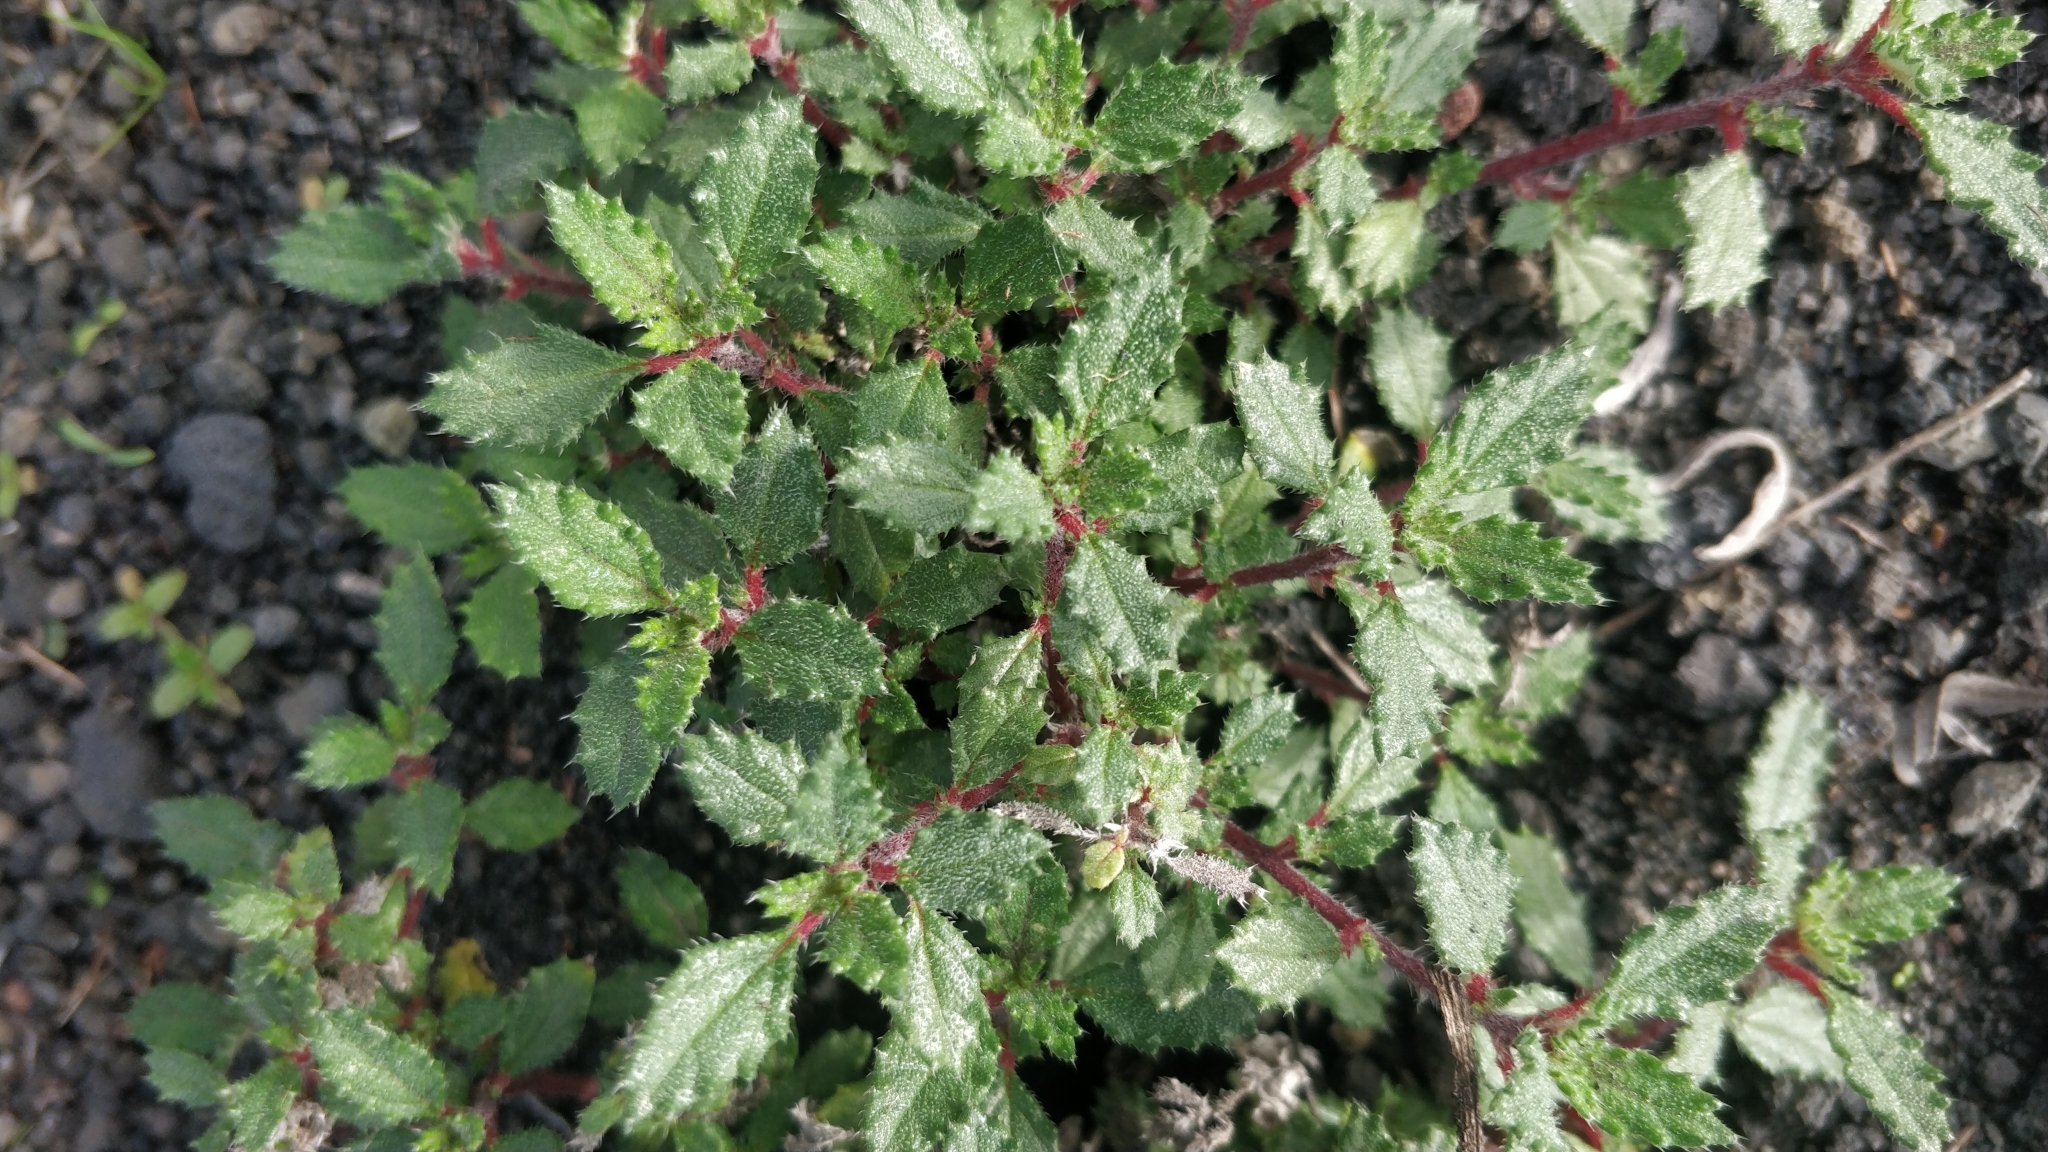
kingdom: Plantae
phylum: Tracheophyta
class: Magnoliopsida
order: Rosales
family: Urticaceae
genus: Forsskaolea
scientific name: Forsskaolea angustifolia
